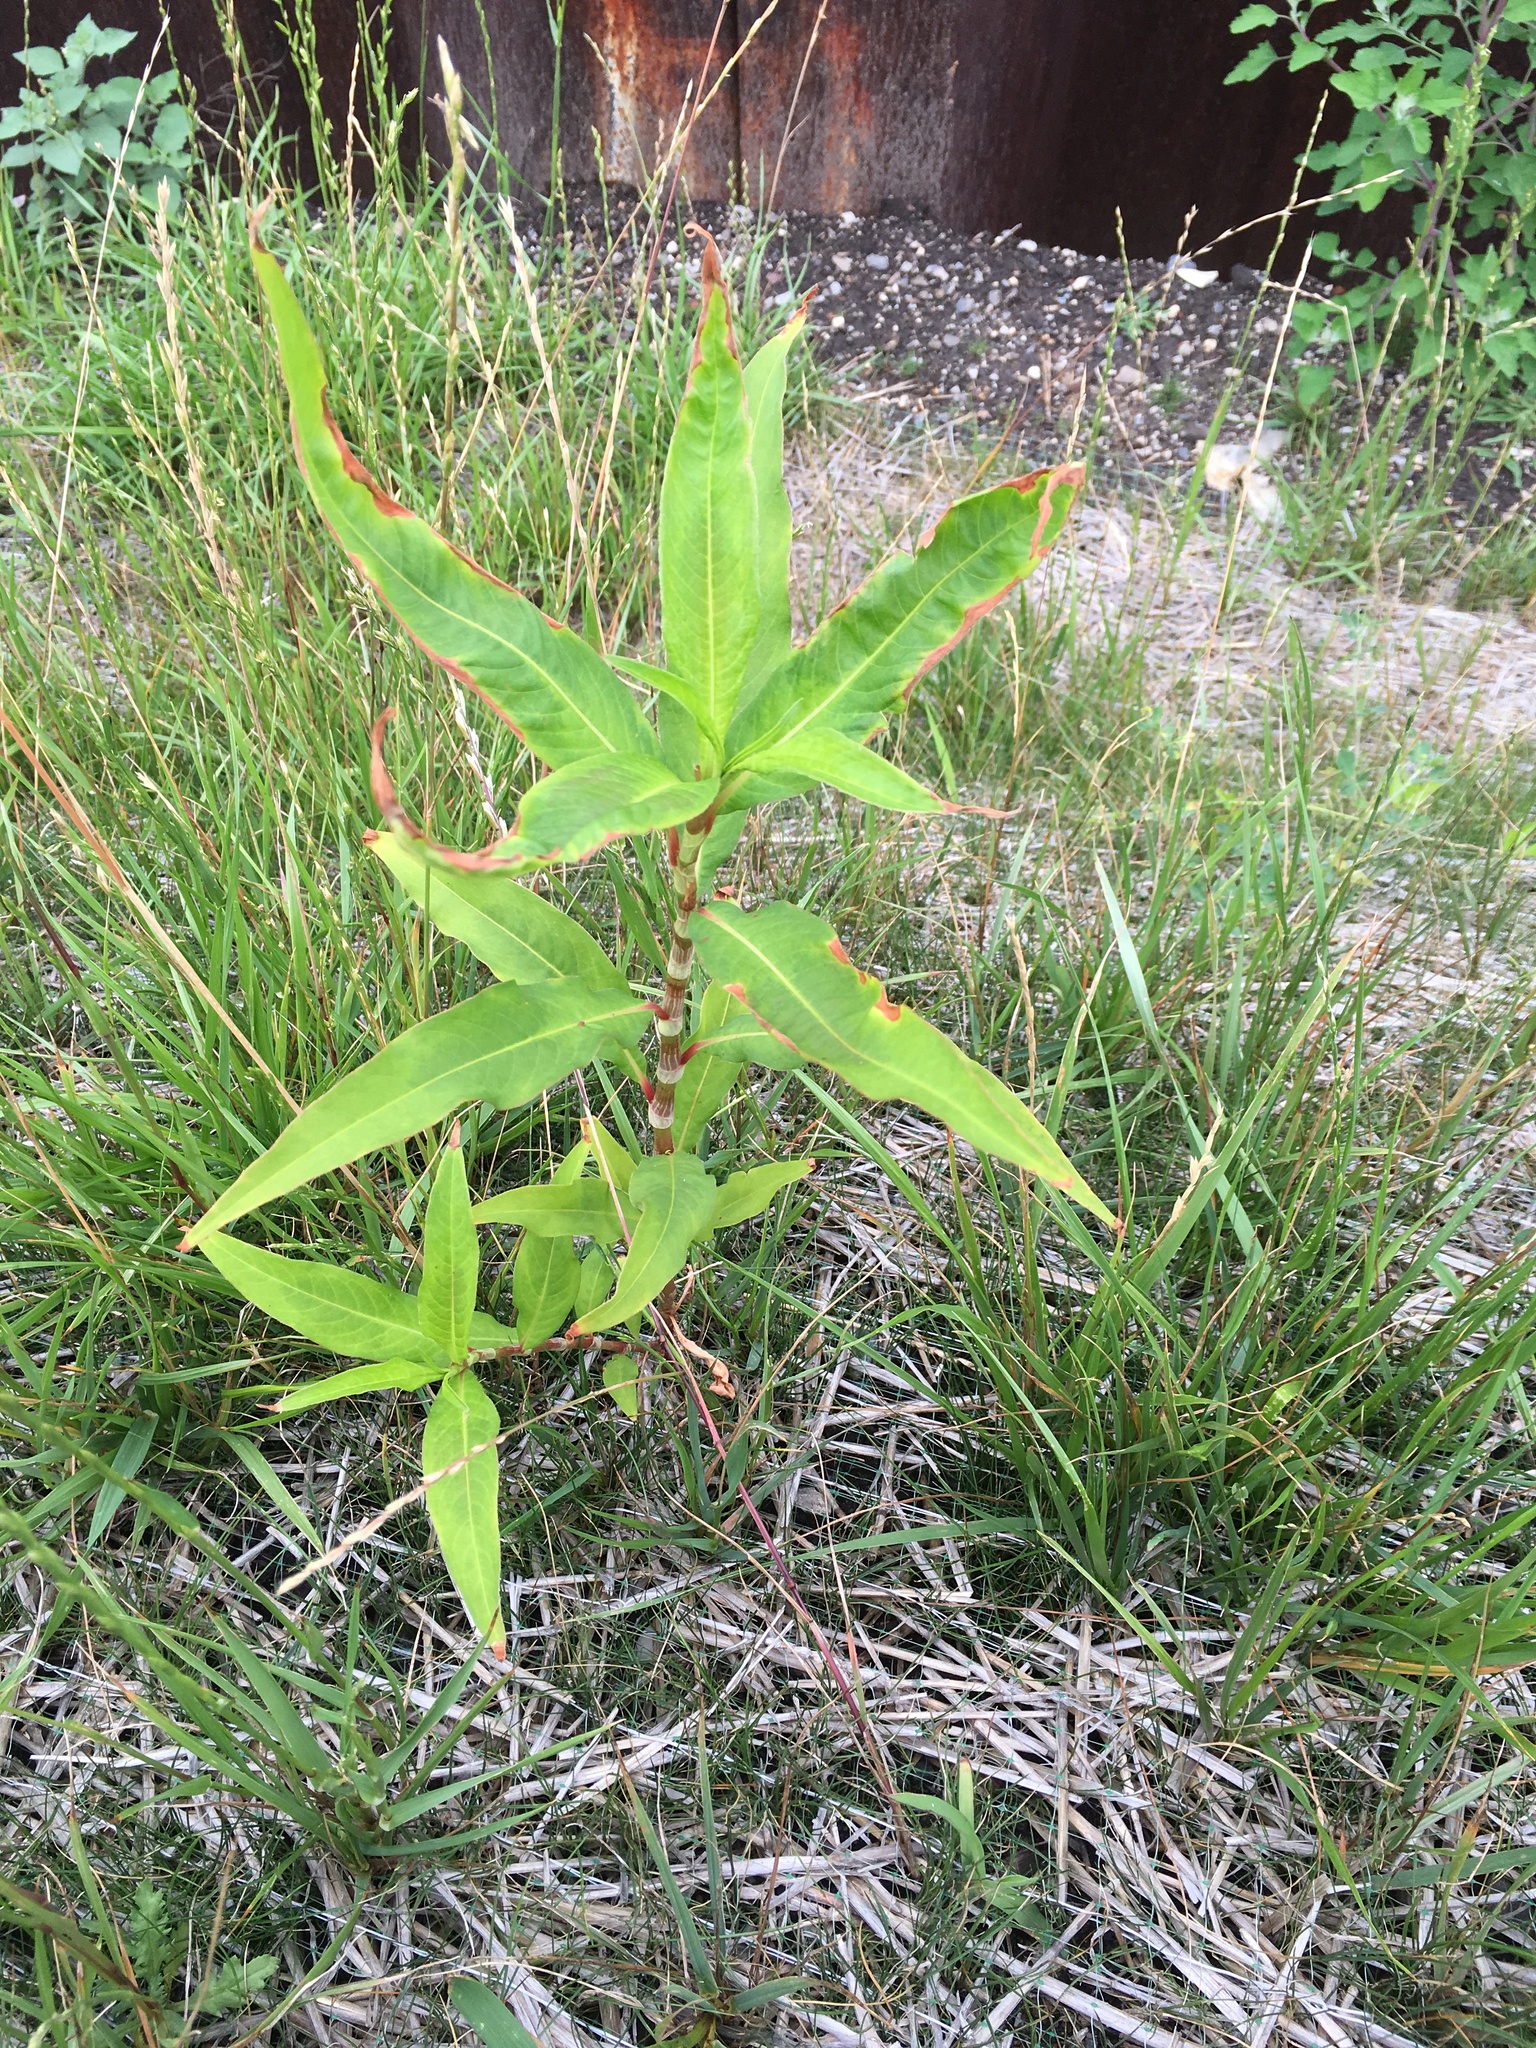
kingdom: Plantae
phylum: Tracheophyta
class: Magnoliopsida
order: Caryophyllales
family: Polygonaceae
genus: Persicaria
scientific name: Persicaria extremiorientalis
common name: Far-eastern smartweed
